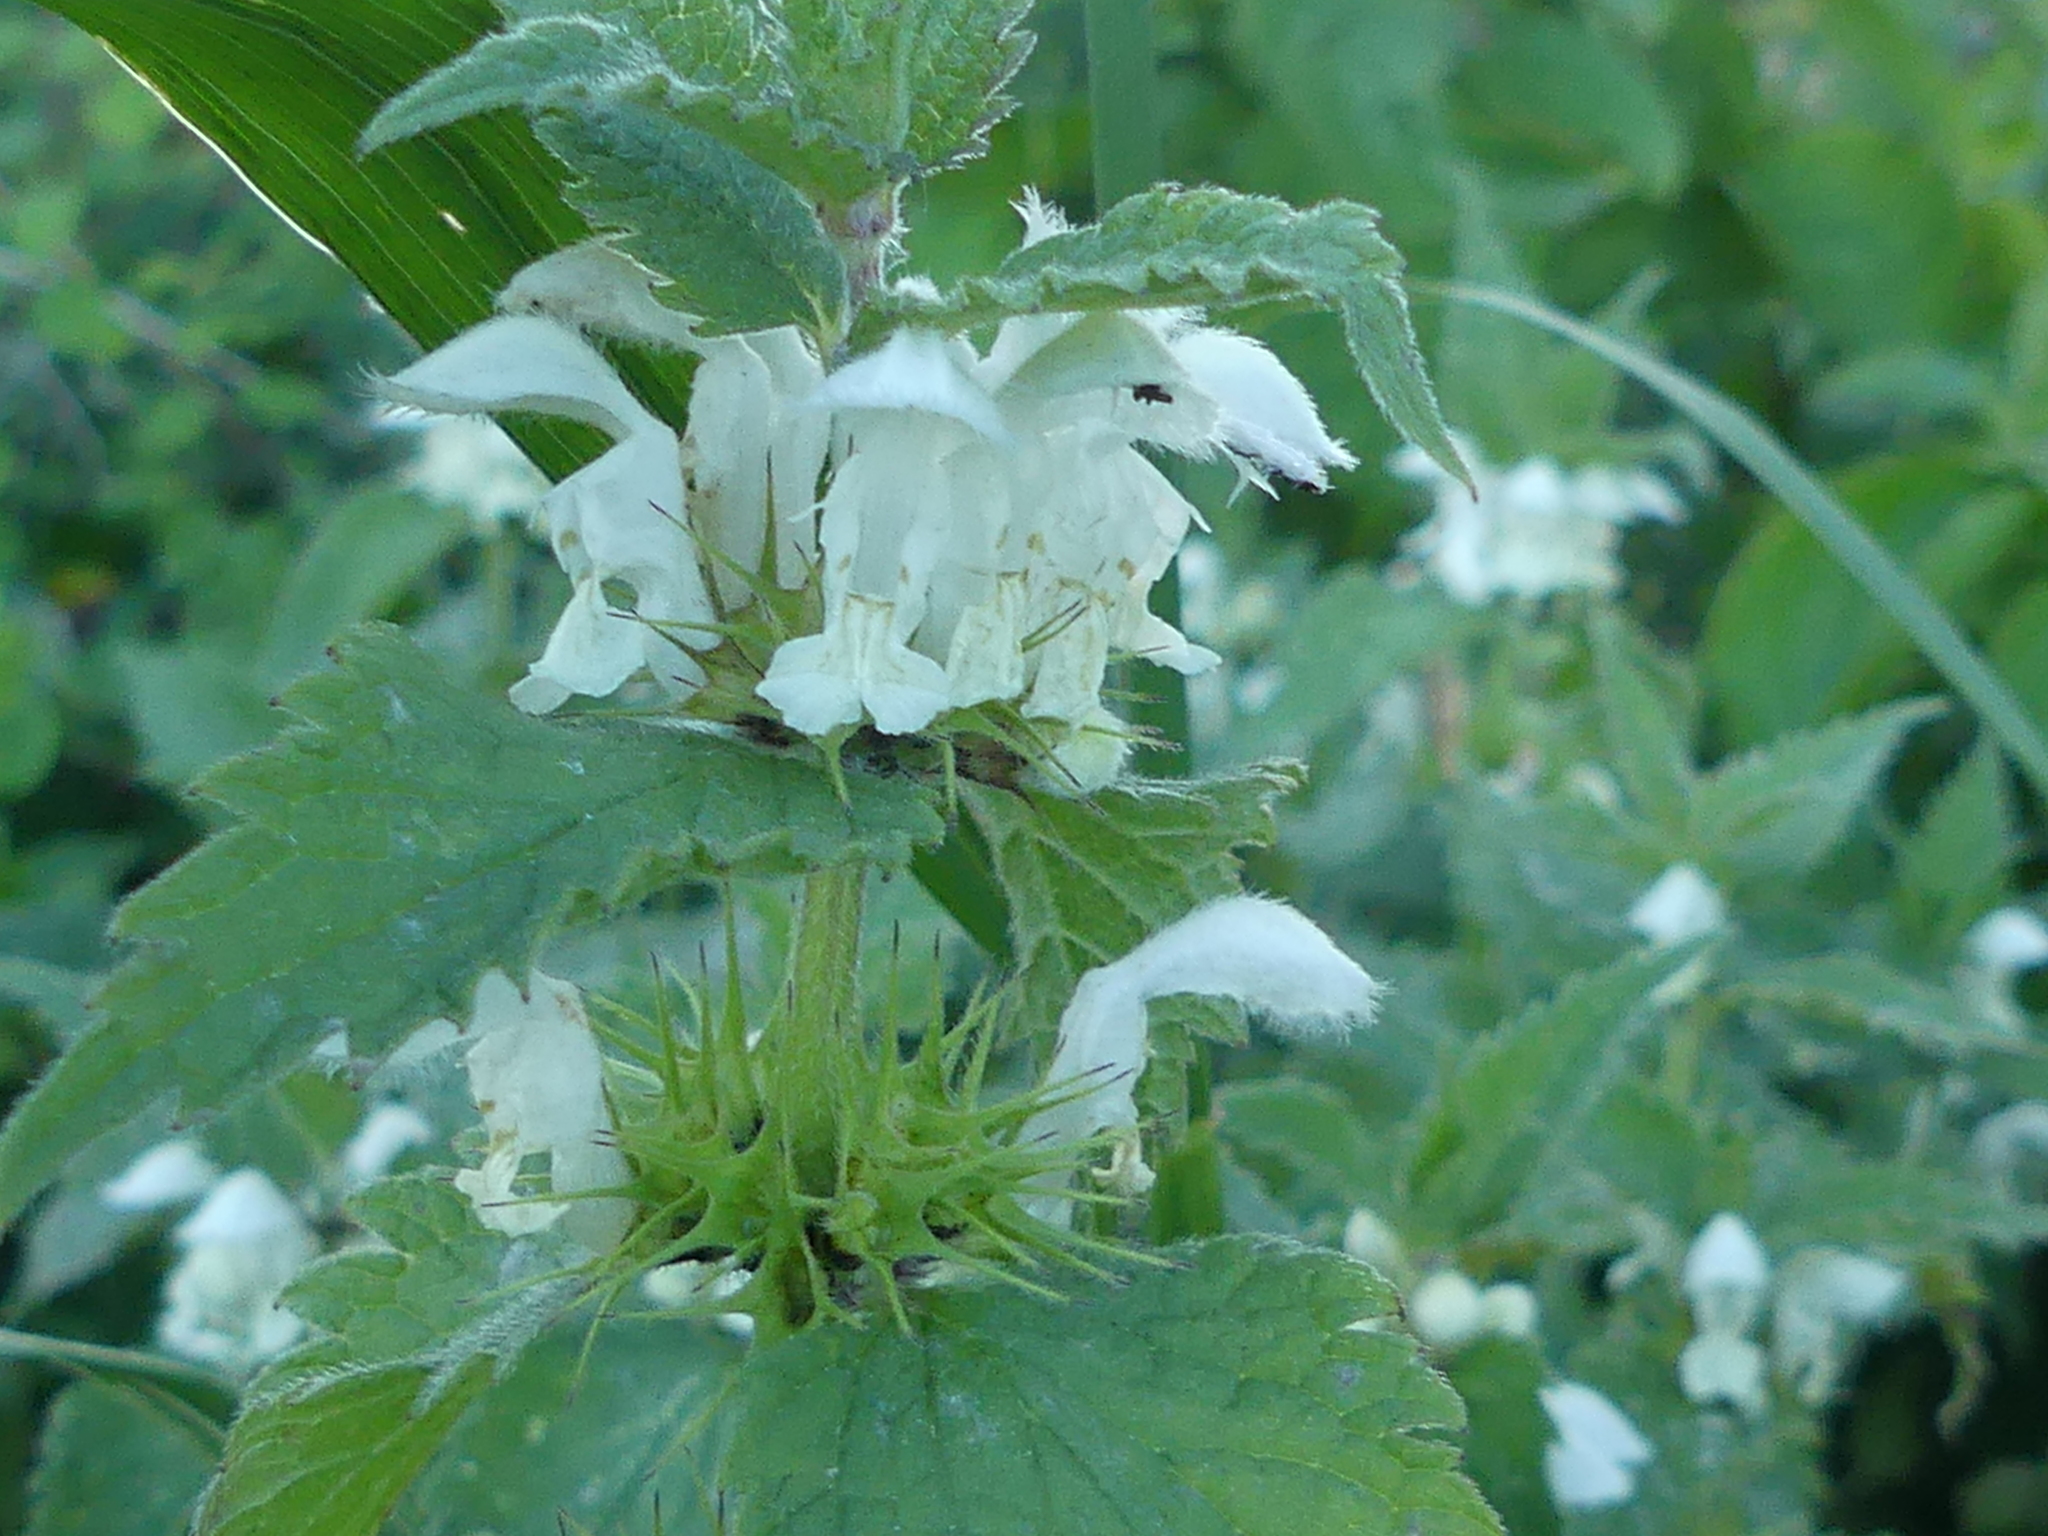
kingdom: Plantae
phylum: Tracheophyta
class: Magnoliopsida
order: Lamiales
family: Lamiaceae
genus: Lamium
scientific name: Lamium album
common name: White dead-nettle
